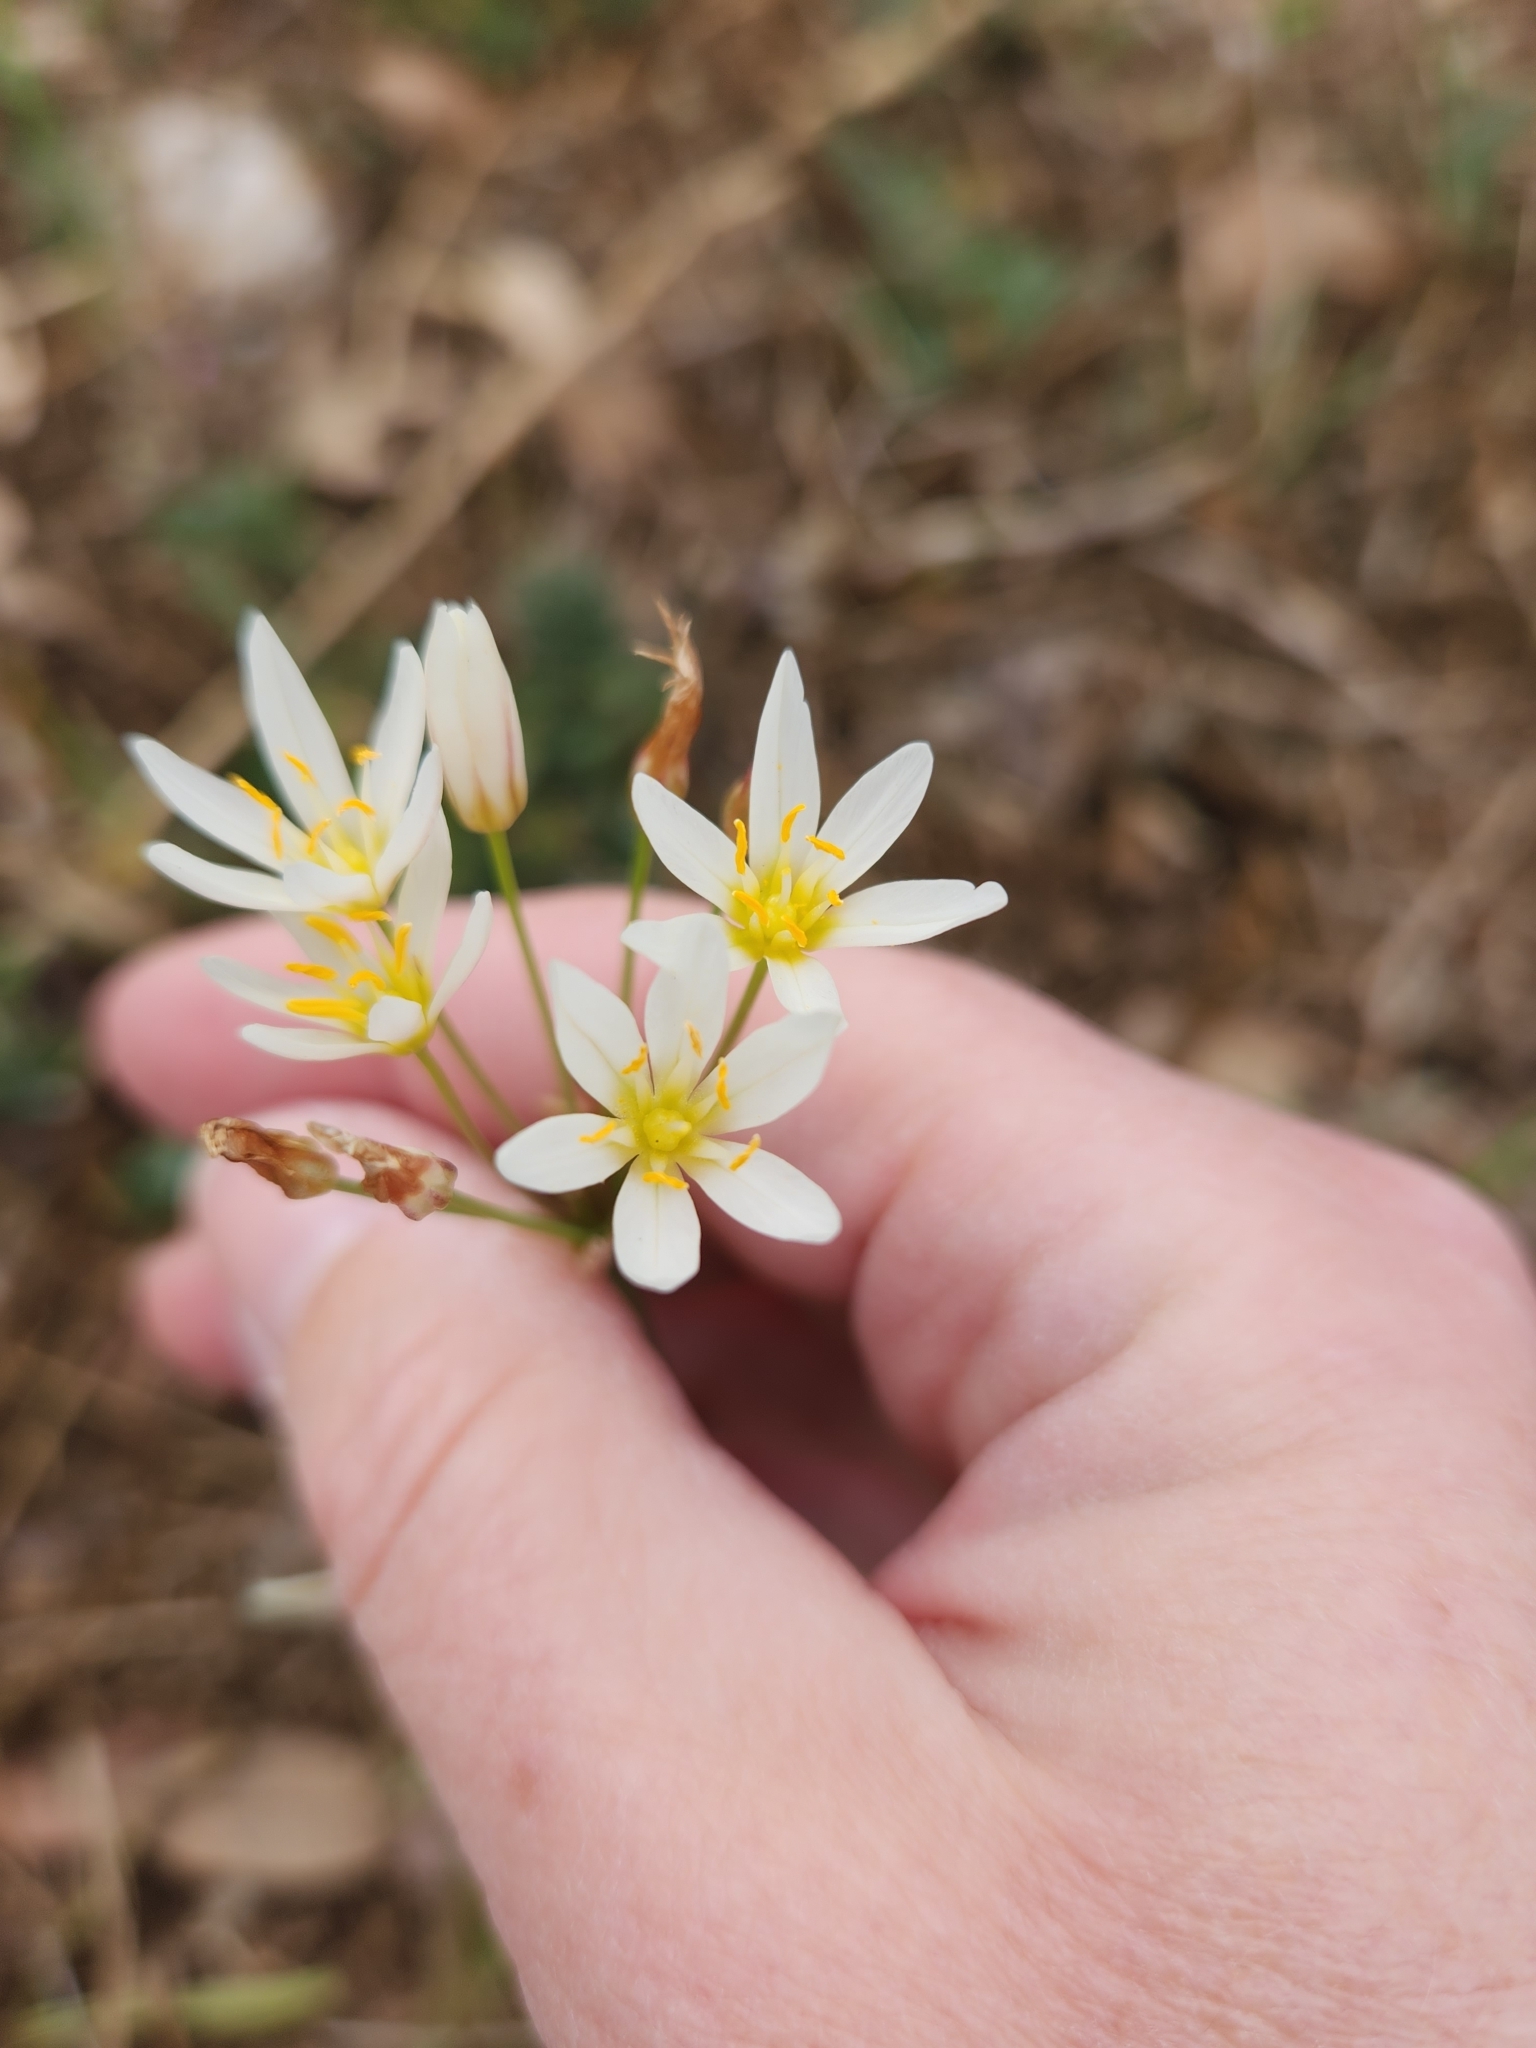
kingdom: Plantae
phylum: Tracheophyta
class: Liliopsida
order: Asparagales
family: Amaryllidaceae
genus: Nothoscordum
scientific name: Nothoscordum bivalve
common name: Crow-poison
